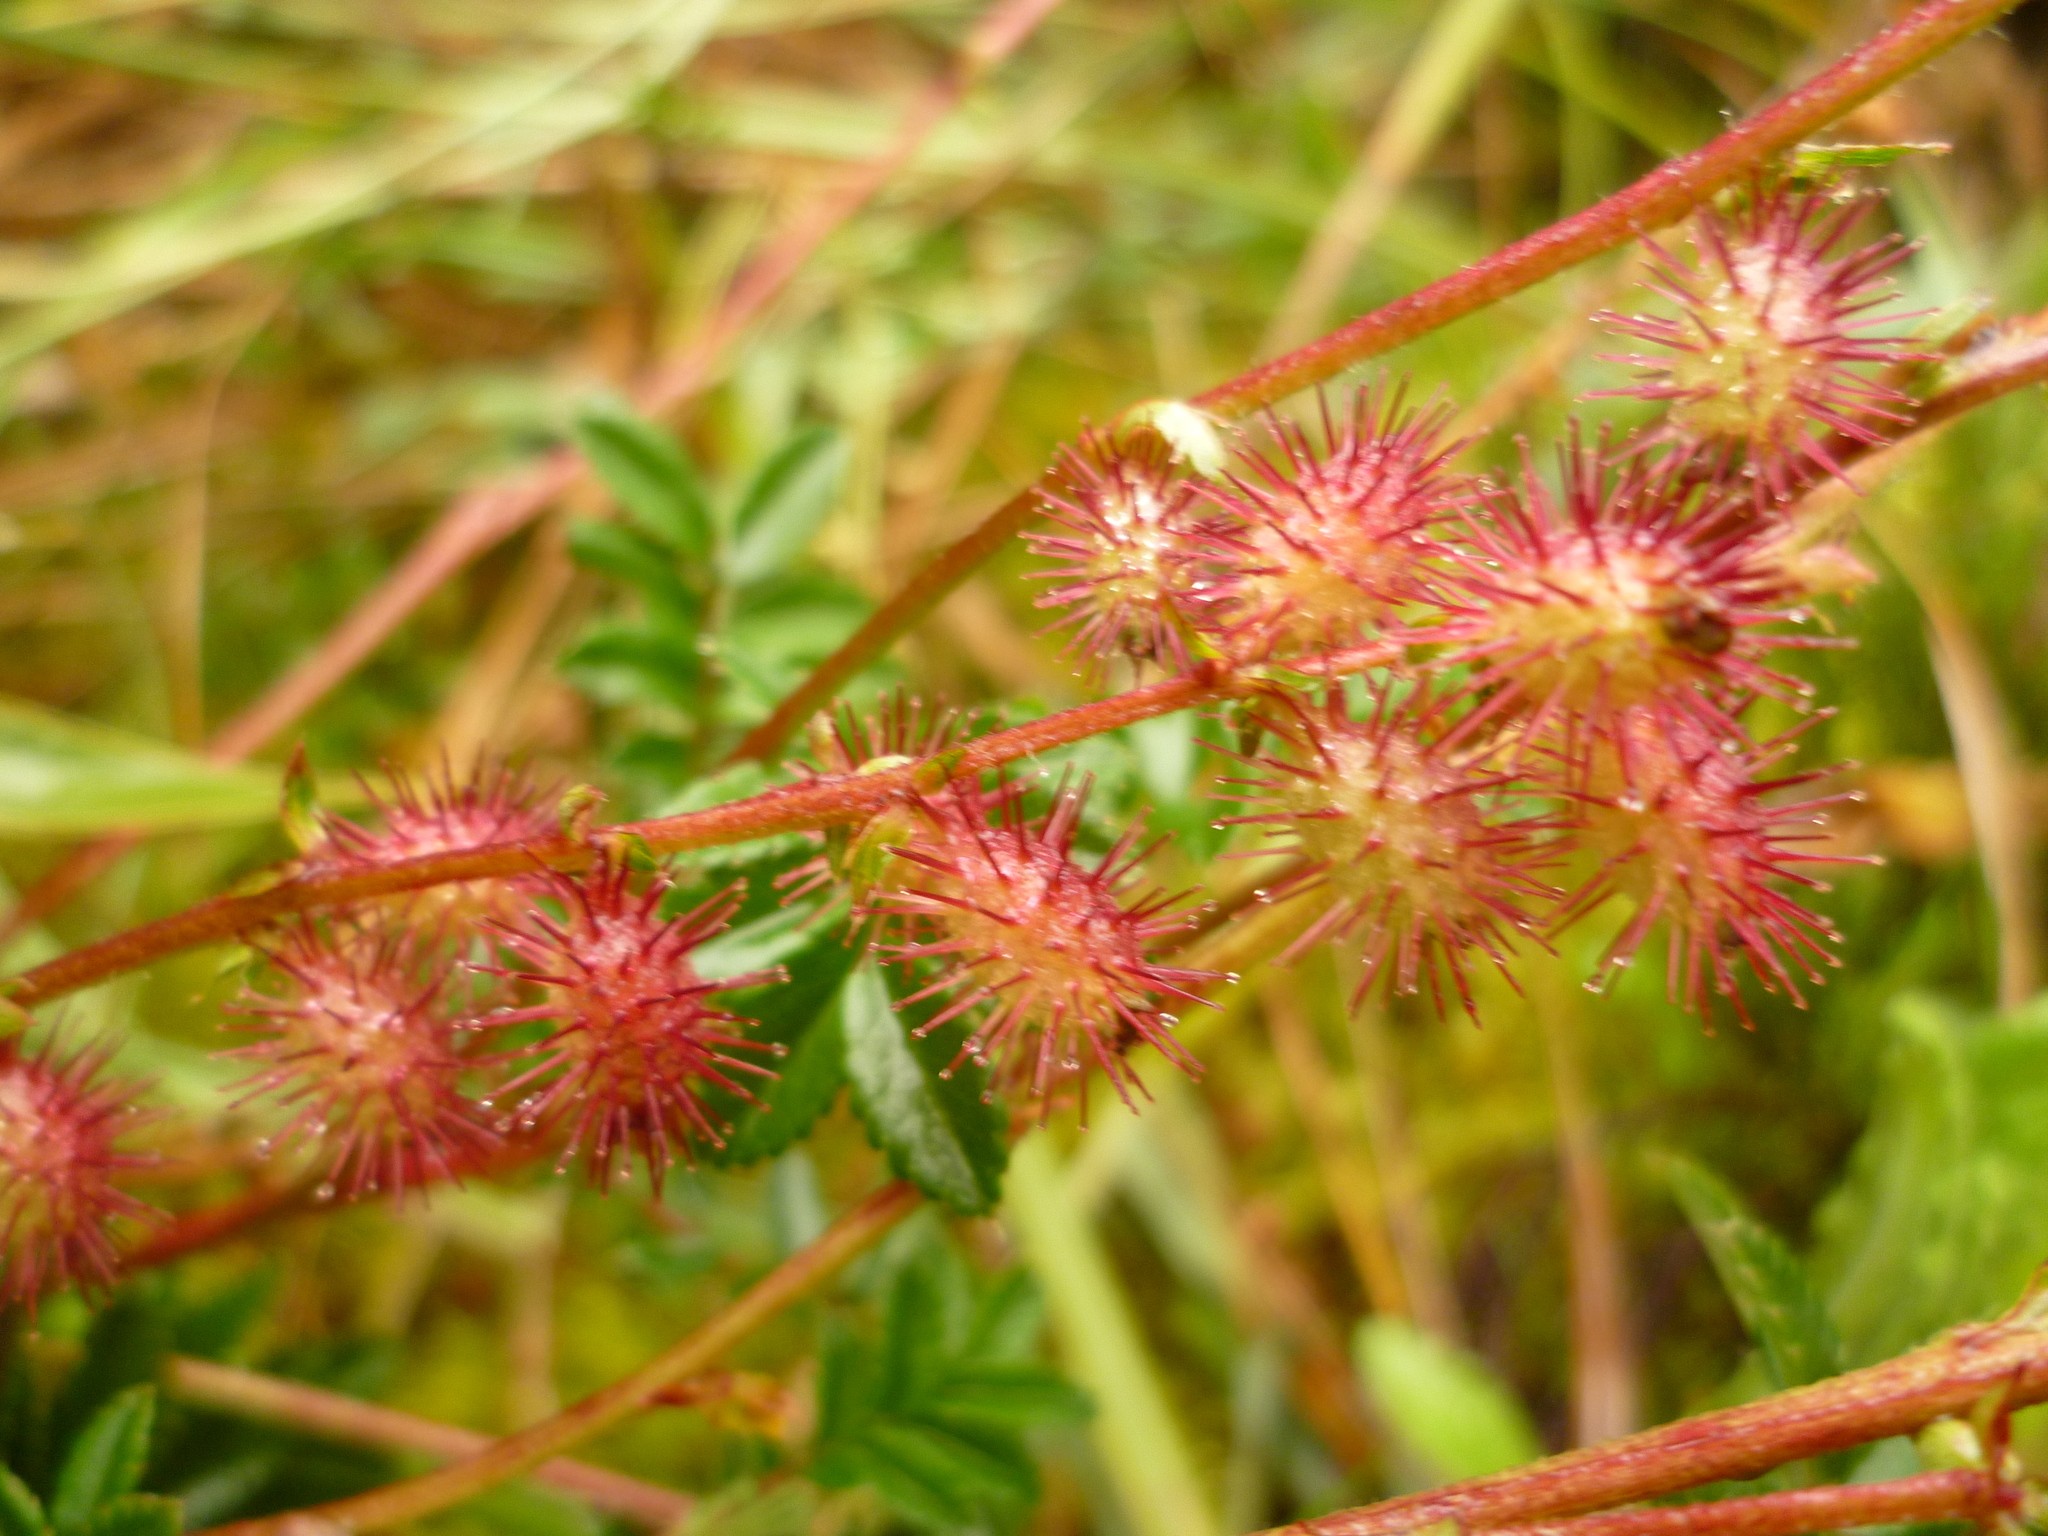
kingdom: Plantae
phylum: Tracheophyta
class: Magnoliopsida
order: Rosales
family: Rosaceae
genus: Acaena
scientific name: Acaena elongata
